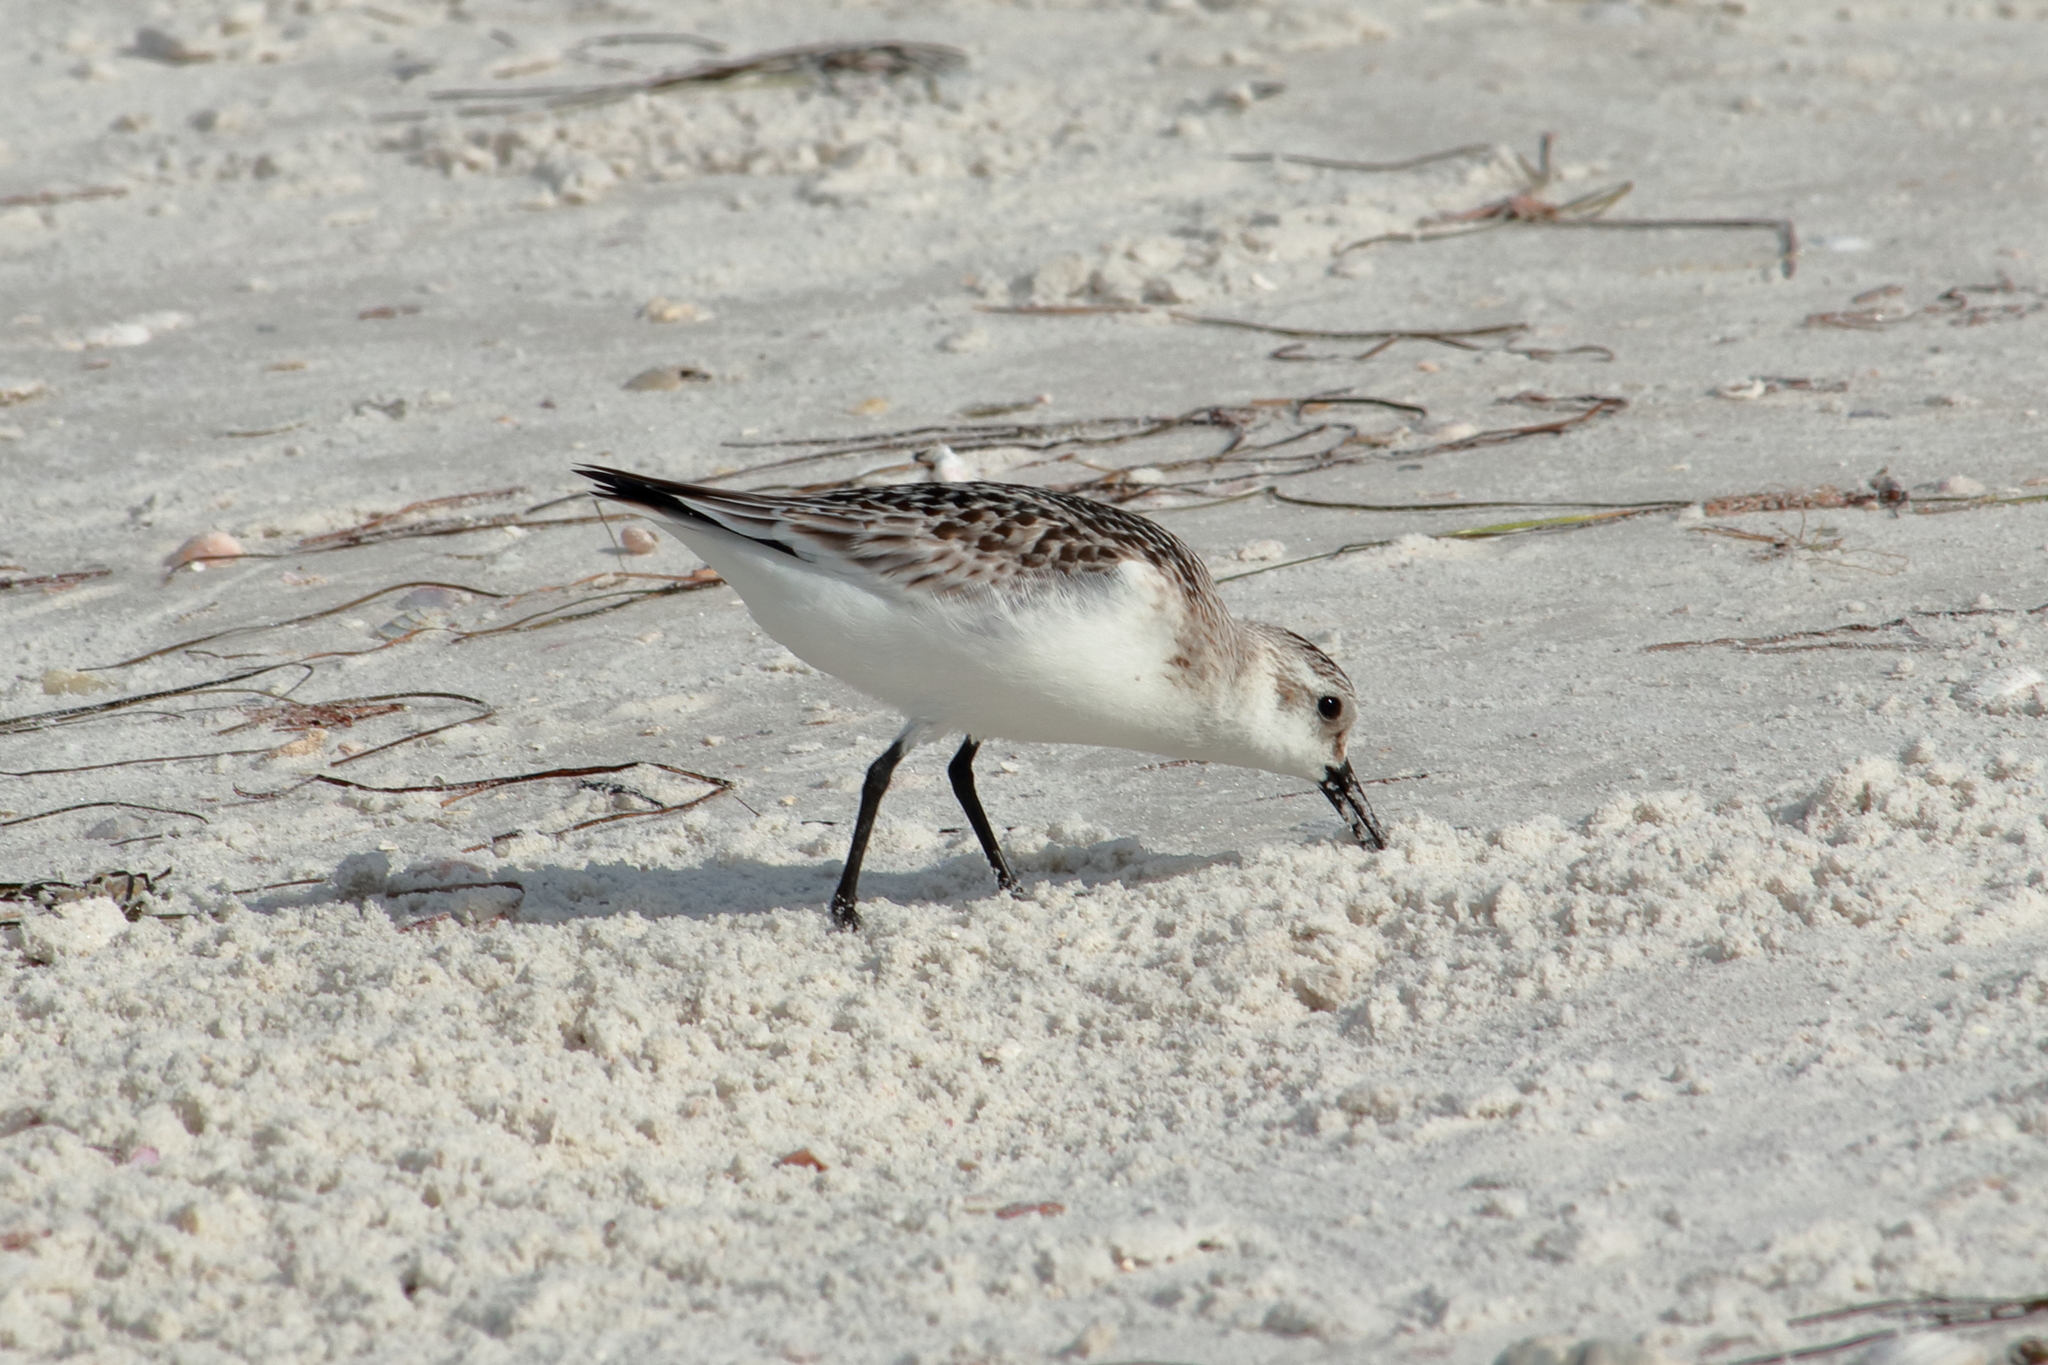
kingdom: Animalia
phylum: Chordata
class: Aves
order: Charadriiformes
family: Scolopacidae
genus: Calidris
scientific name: Calidris alba
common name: Sanderling
